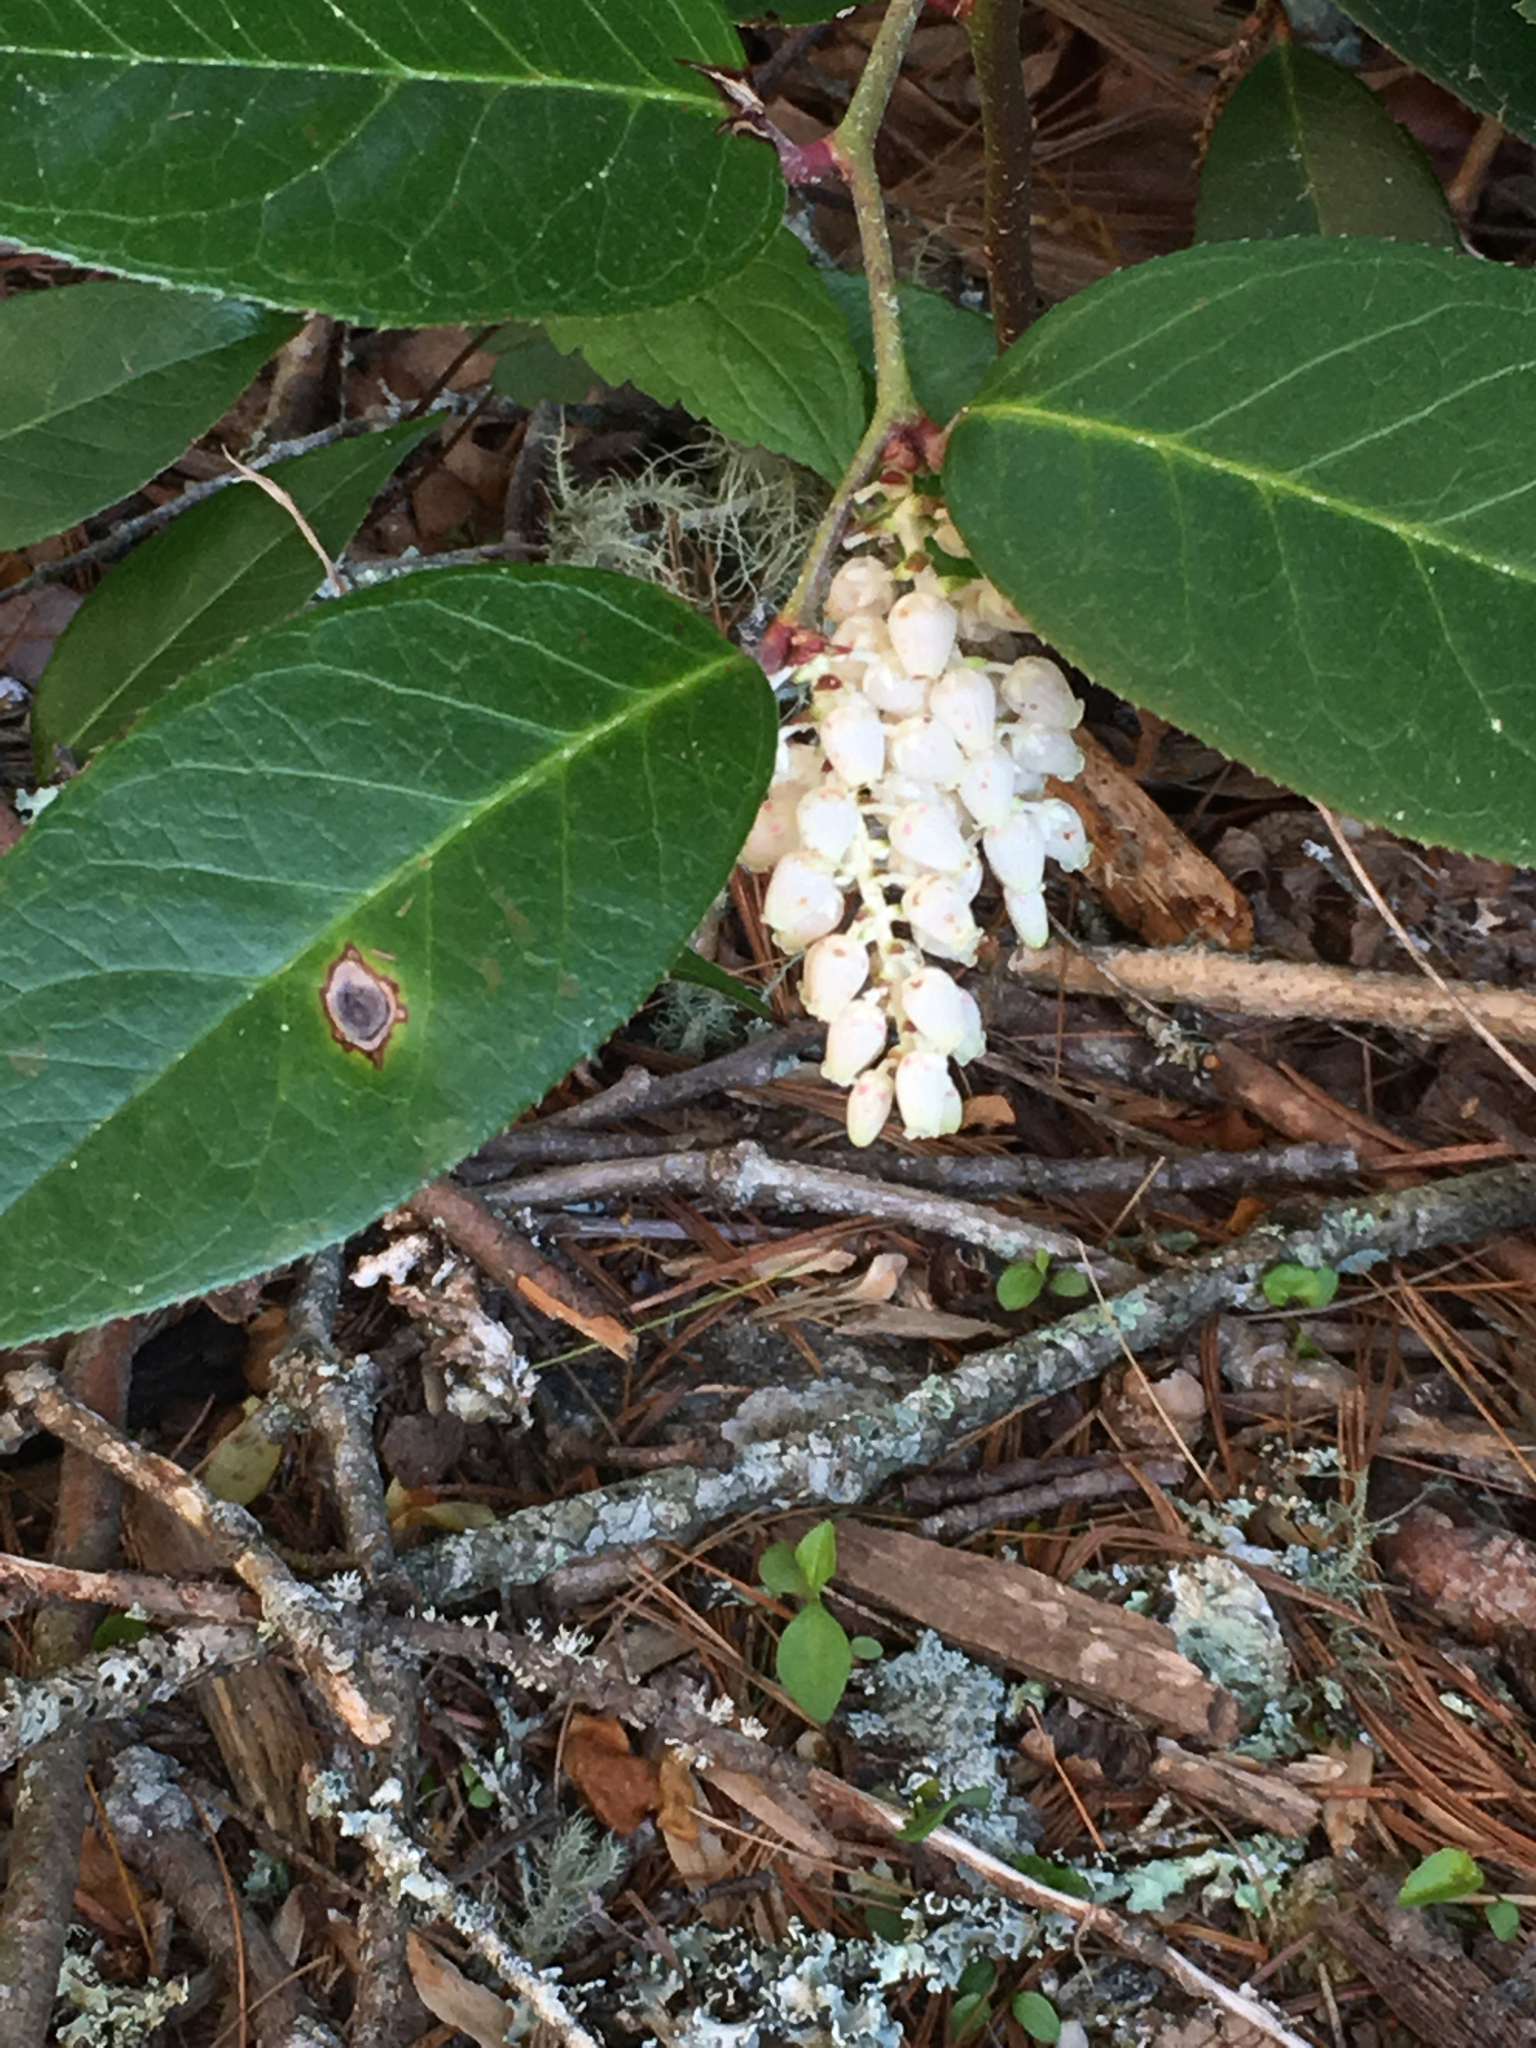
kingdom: Plantae
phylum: Tracheophyta
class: Magnoliopsida
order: Ericales
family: Ericaceae
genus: Leucothoe
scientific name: Leucothoe fontanesiana
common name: Fetterbush
